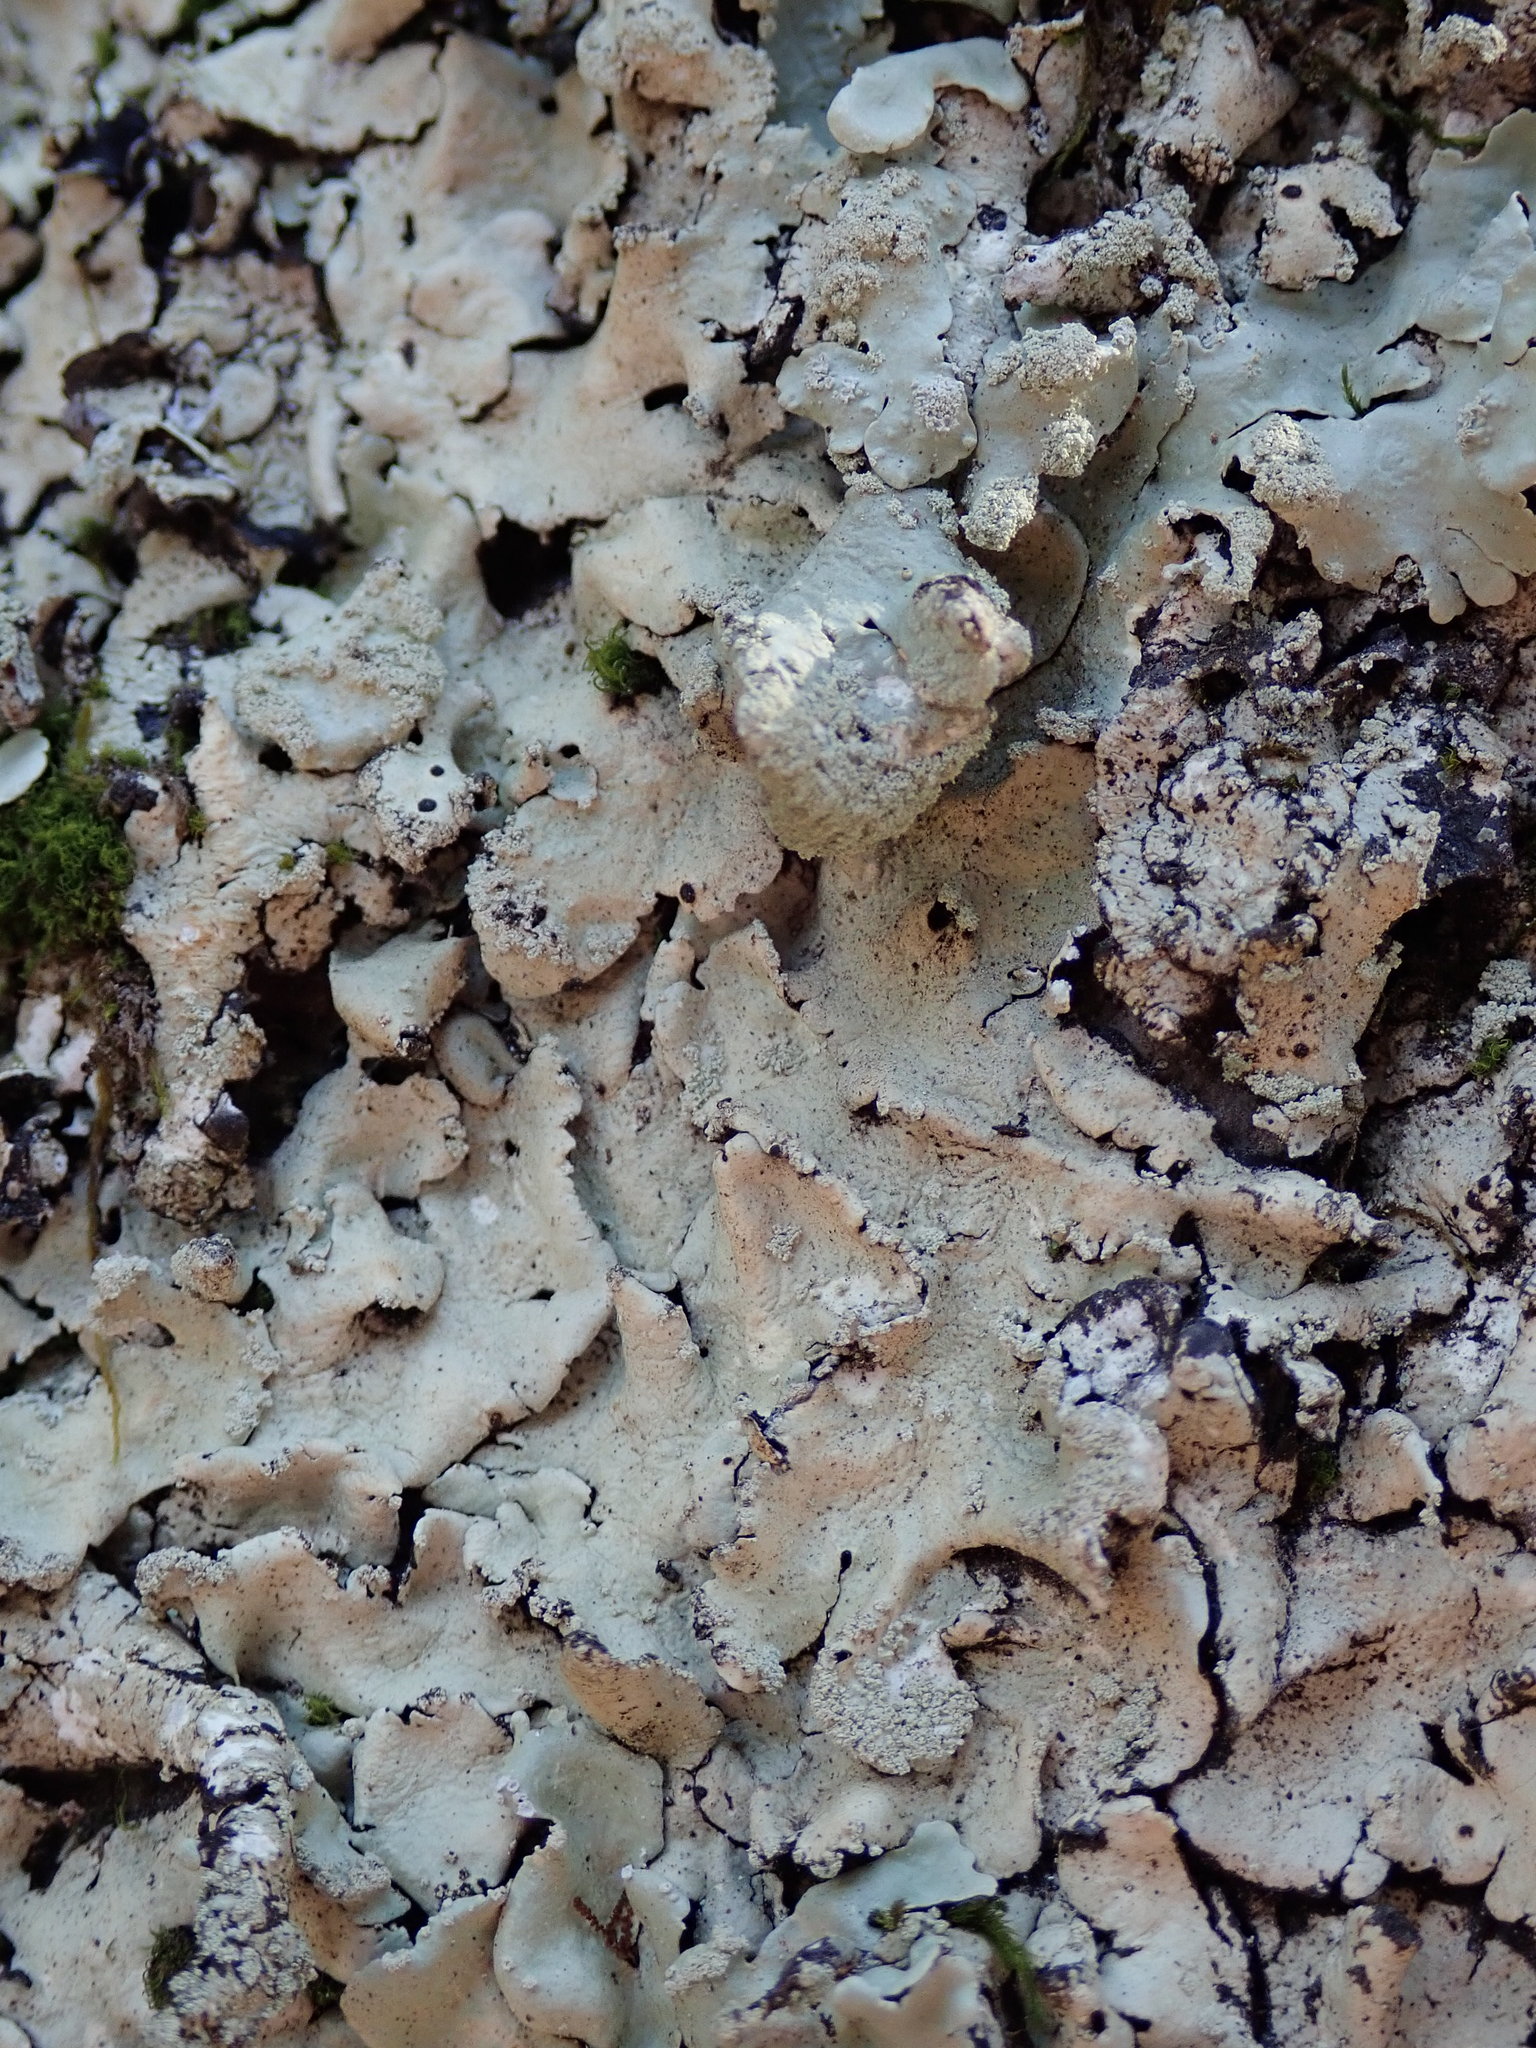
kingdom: Fungi
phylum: Ascomycota
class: Lecanoromycetes
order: Lecanorales
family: Parmeliaceae
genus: Flavoparmelia
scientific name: Flavoparmelia caperata
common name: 40-mile per hour lichen
